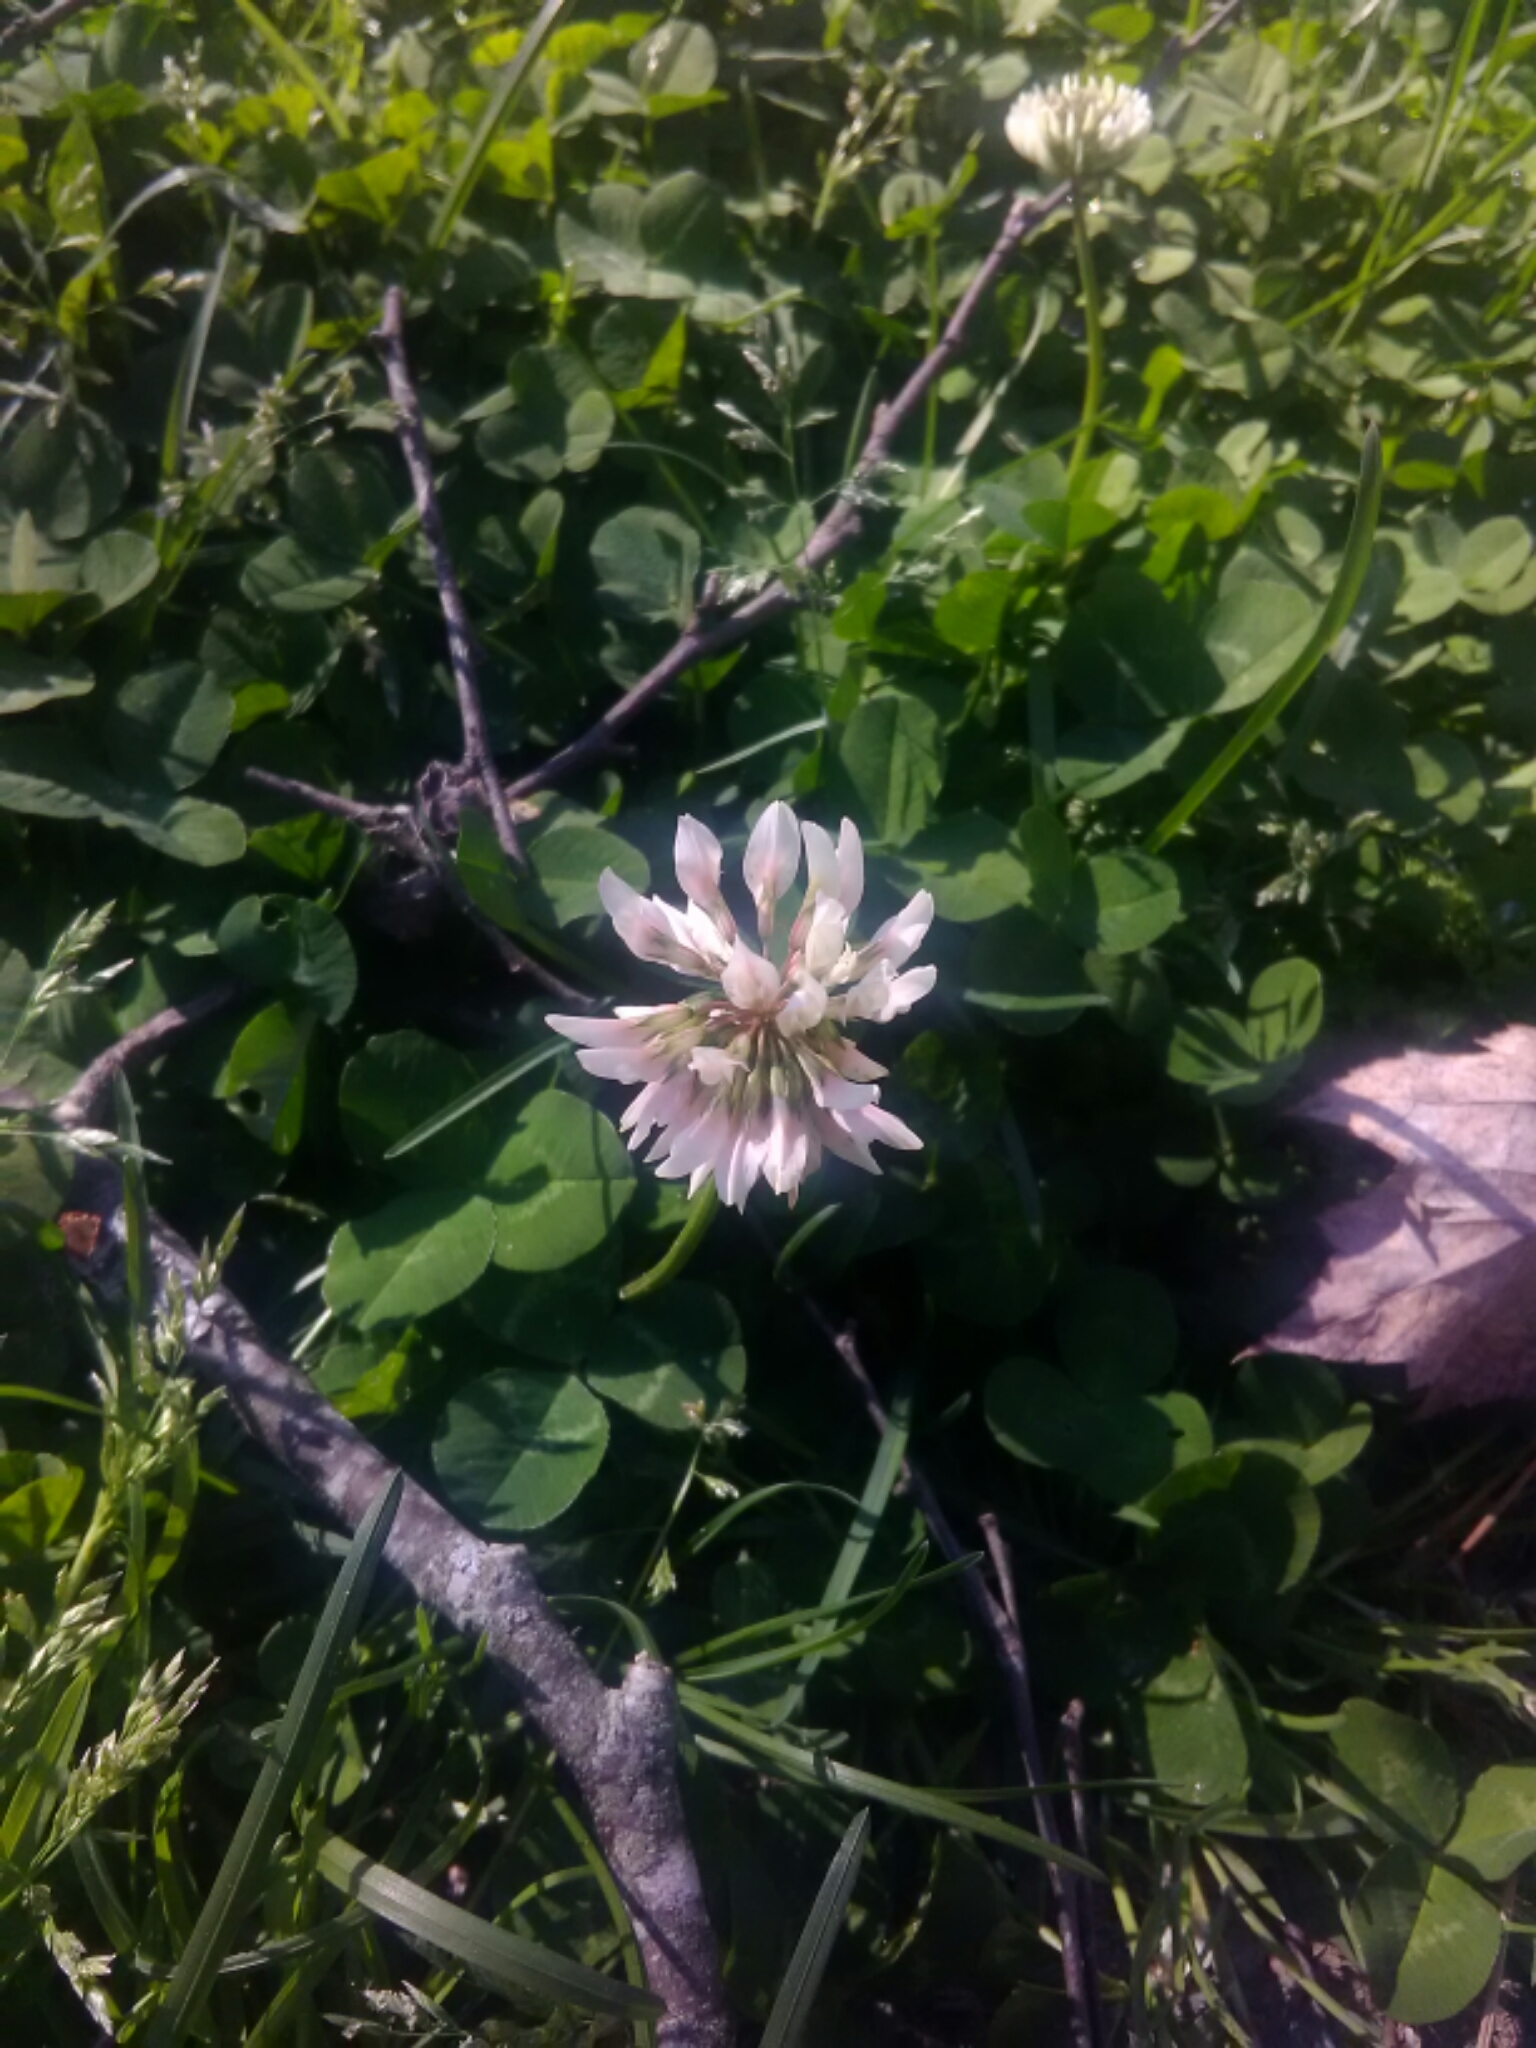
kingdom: Plantae
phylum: Tracheophyta
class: Magnoliopsida
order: Fabales
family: Fabaceae
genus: Trifolium
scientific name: Trifolium repens
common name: White clover
